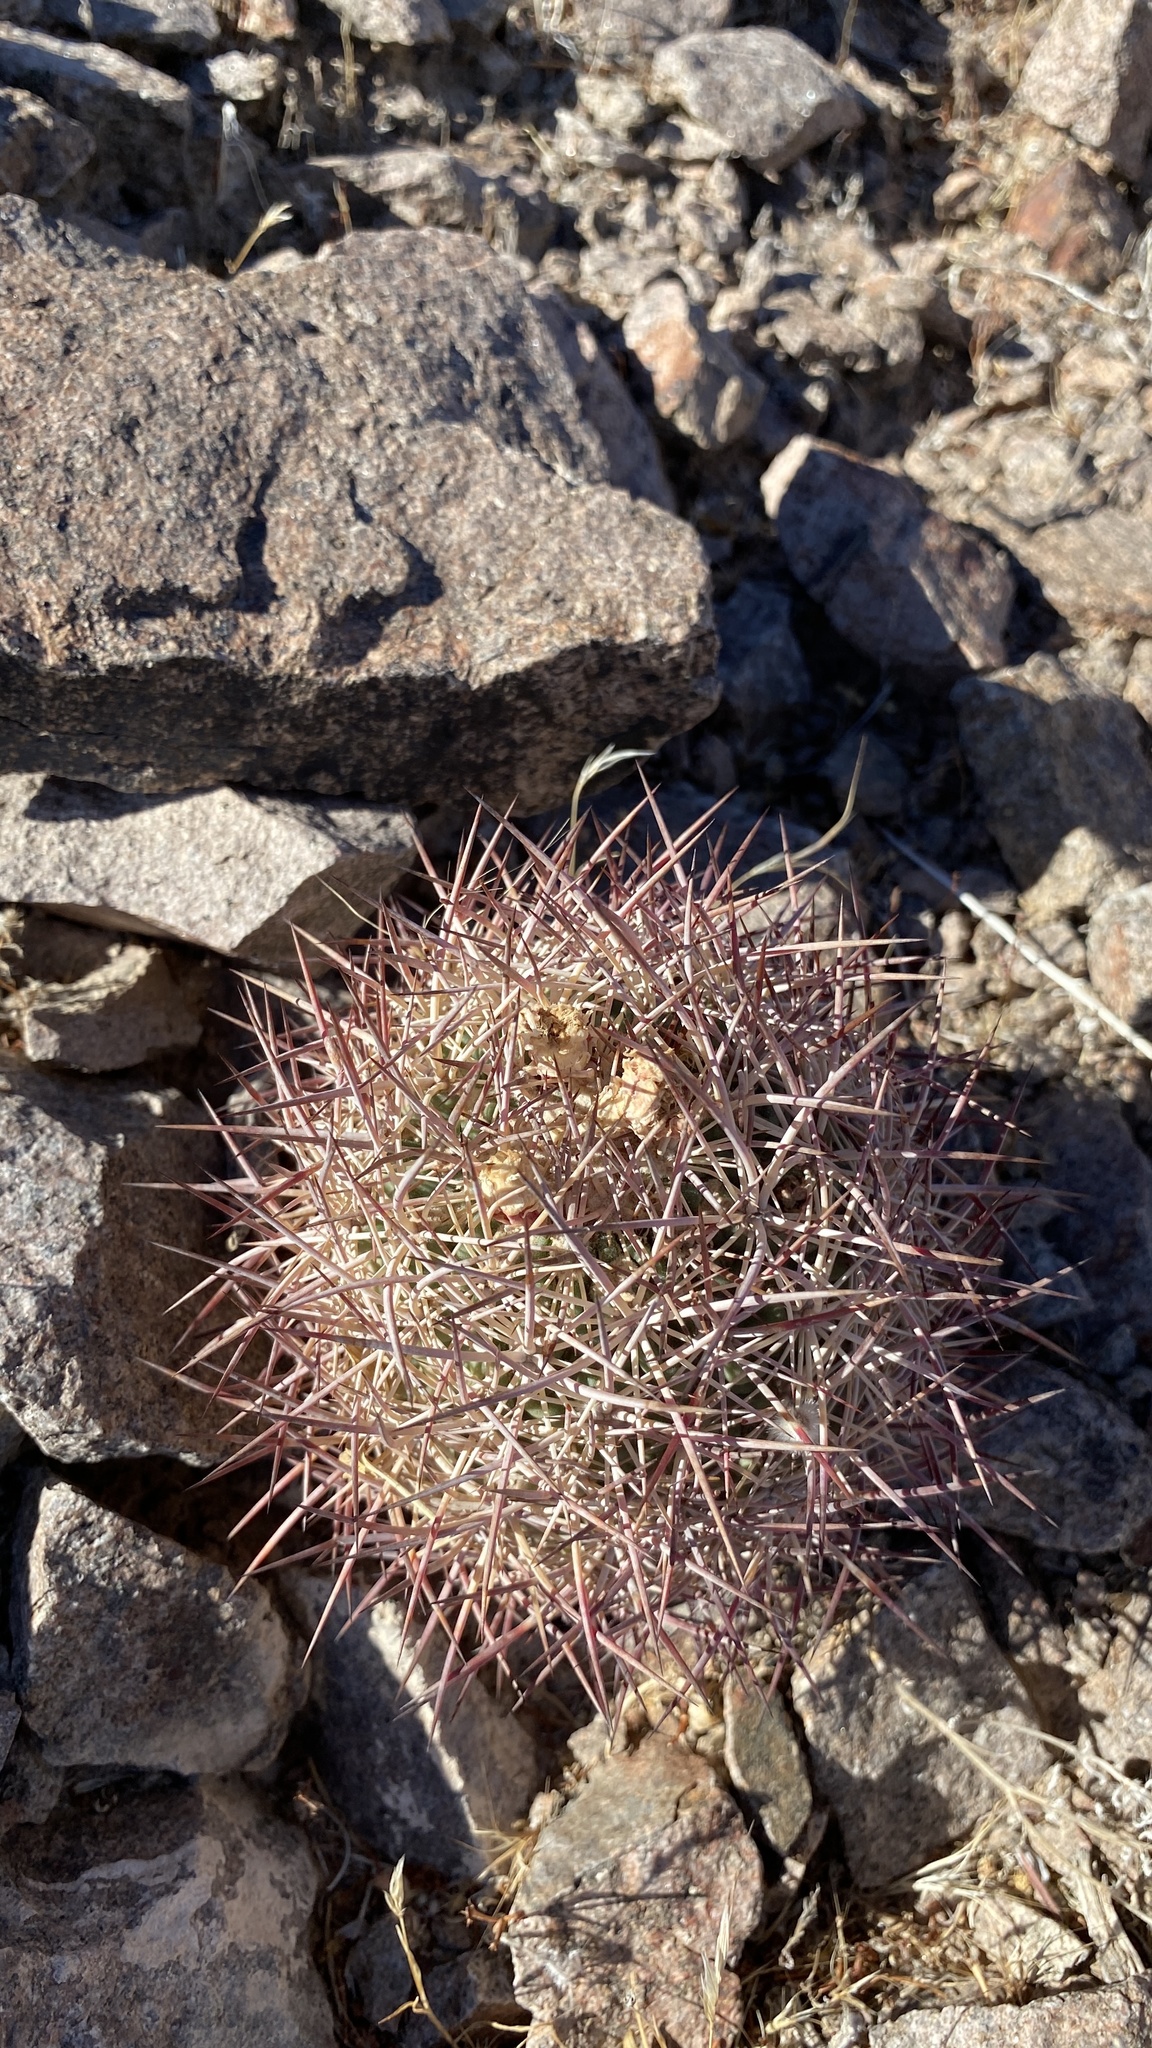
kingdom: Plantae
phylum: Tracheophyta
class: Magnoliopsida
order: Caryophyllales
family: Cactaceae
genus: Sclerocactus
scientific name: Sclerocactus johnsonii
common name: Eight-spine fishhook cactus
